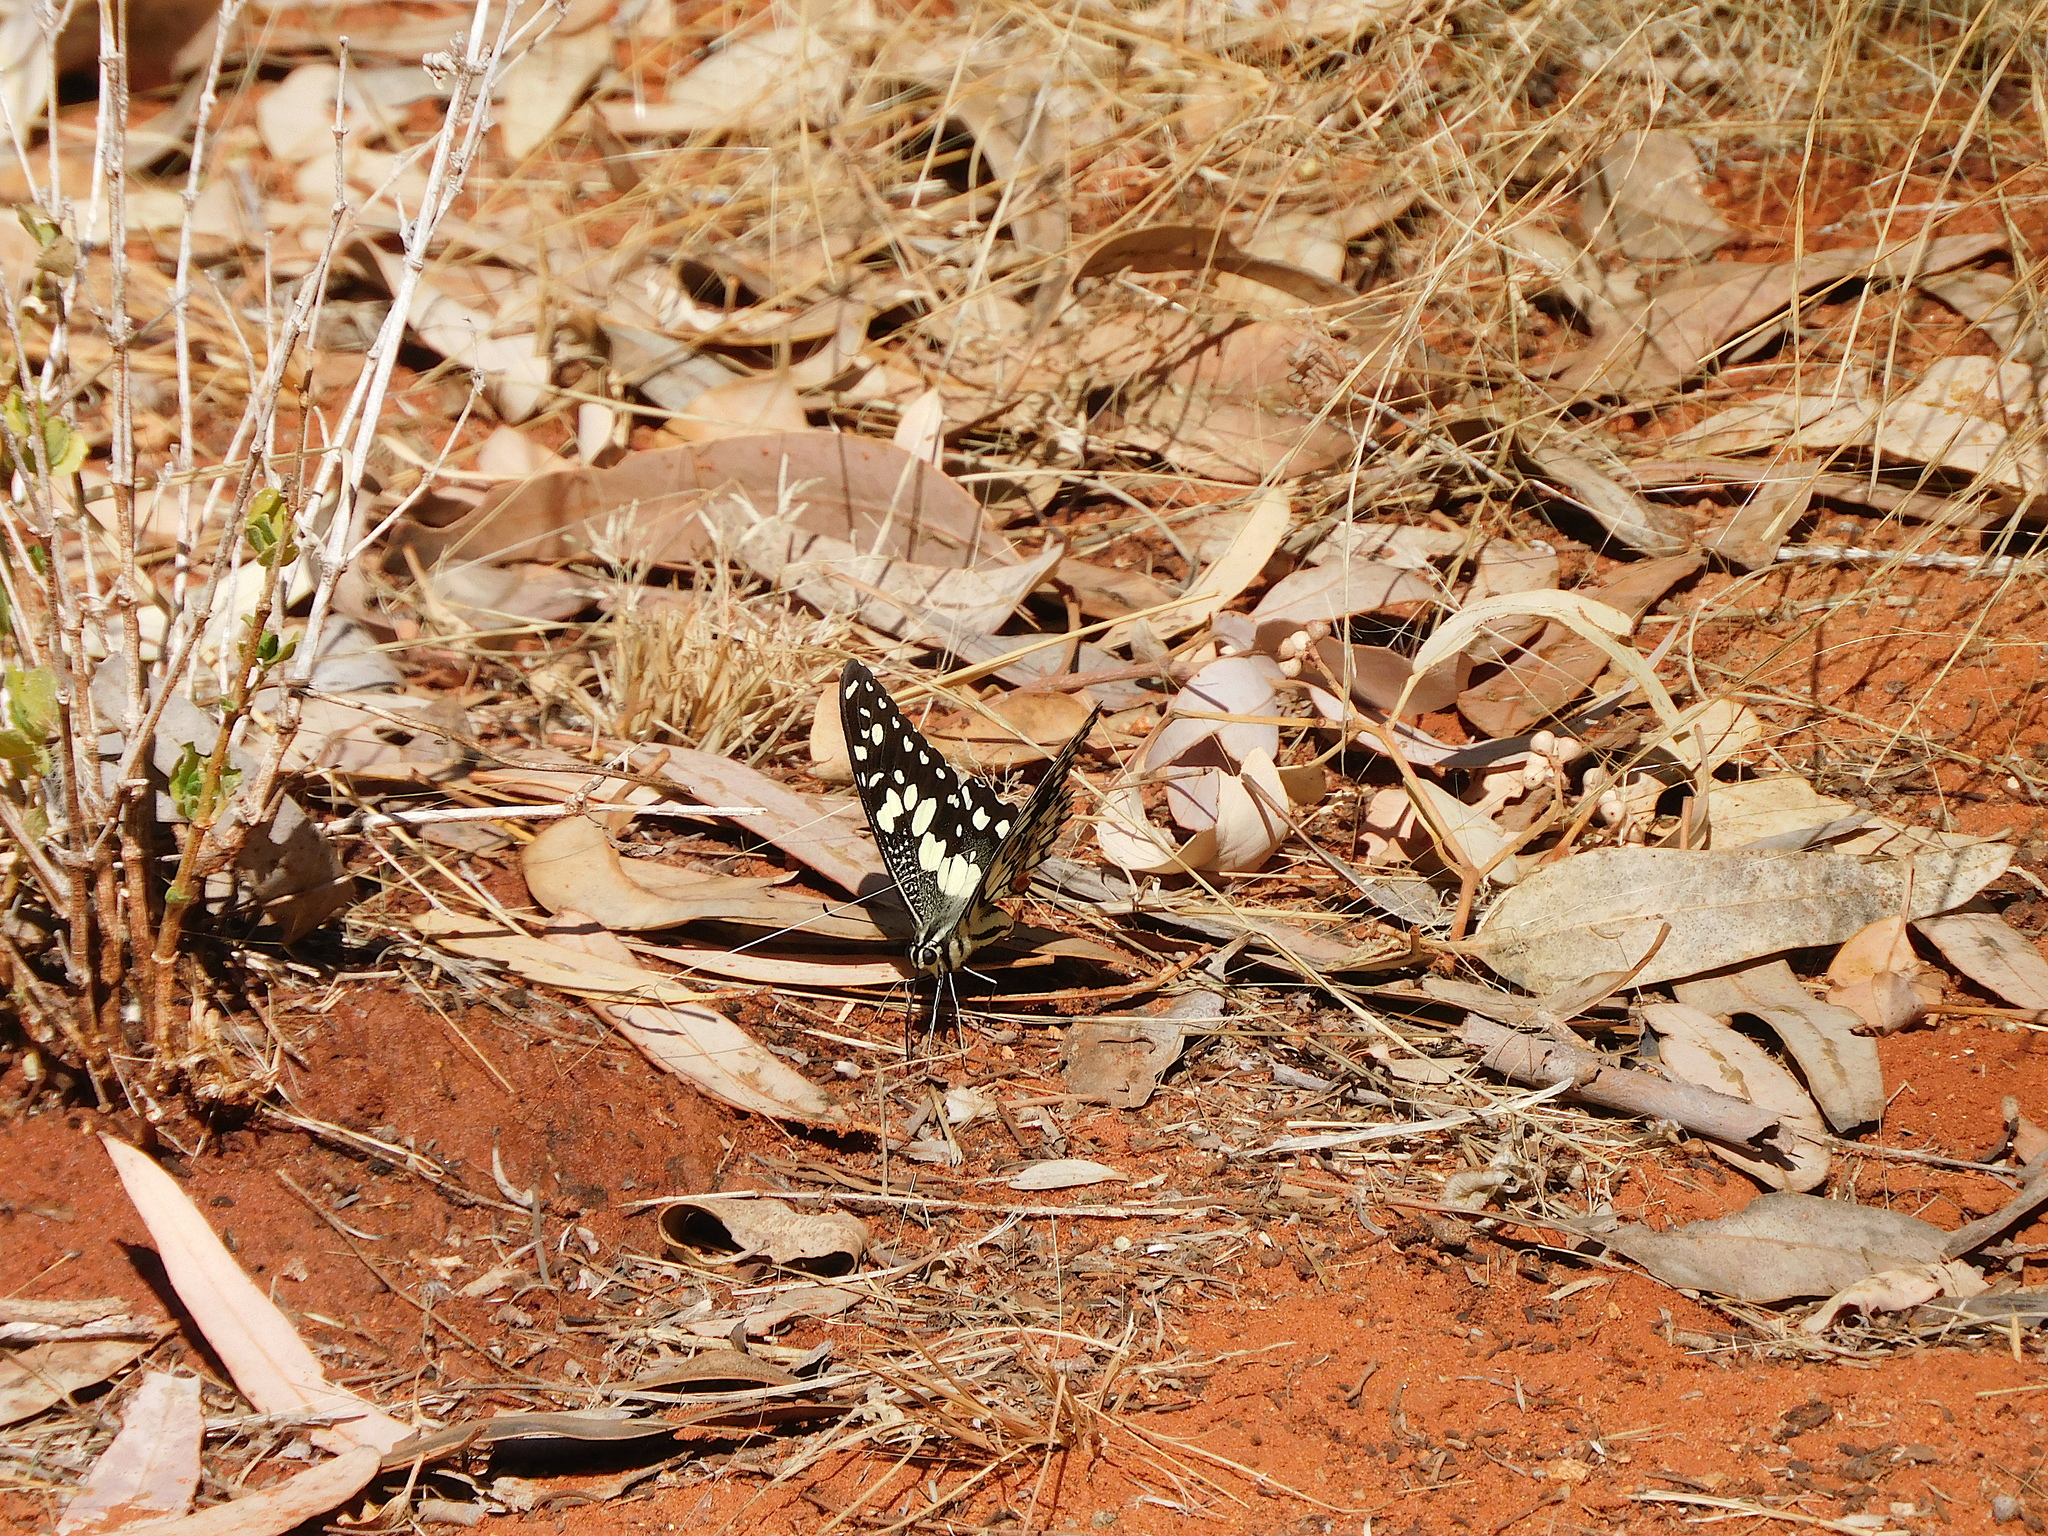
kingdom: Animalia
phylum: Arthropoda
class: Insecta
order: Lepidoptera
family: Papilionidae
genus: Papilio
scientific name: Papilio demoleus
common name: Lime butterfly
